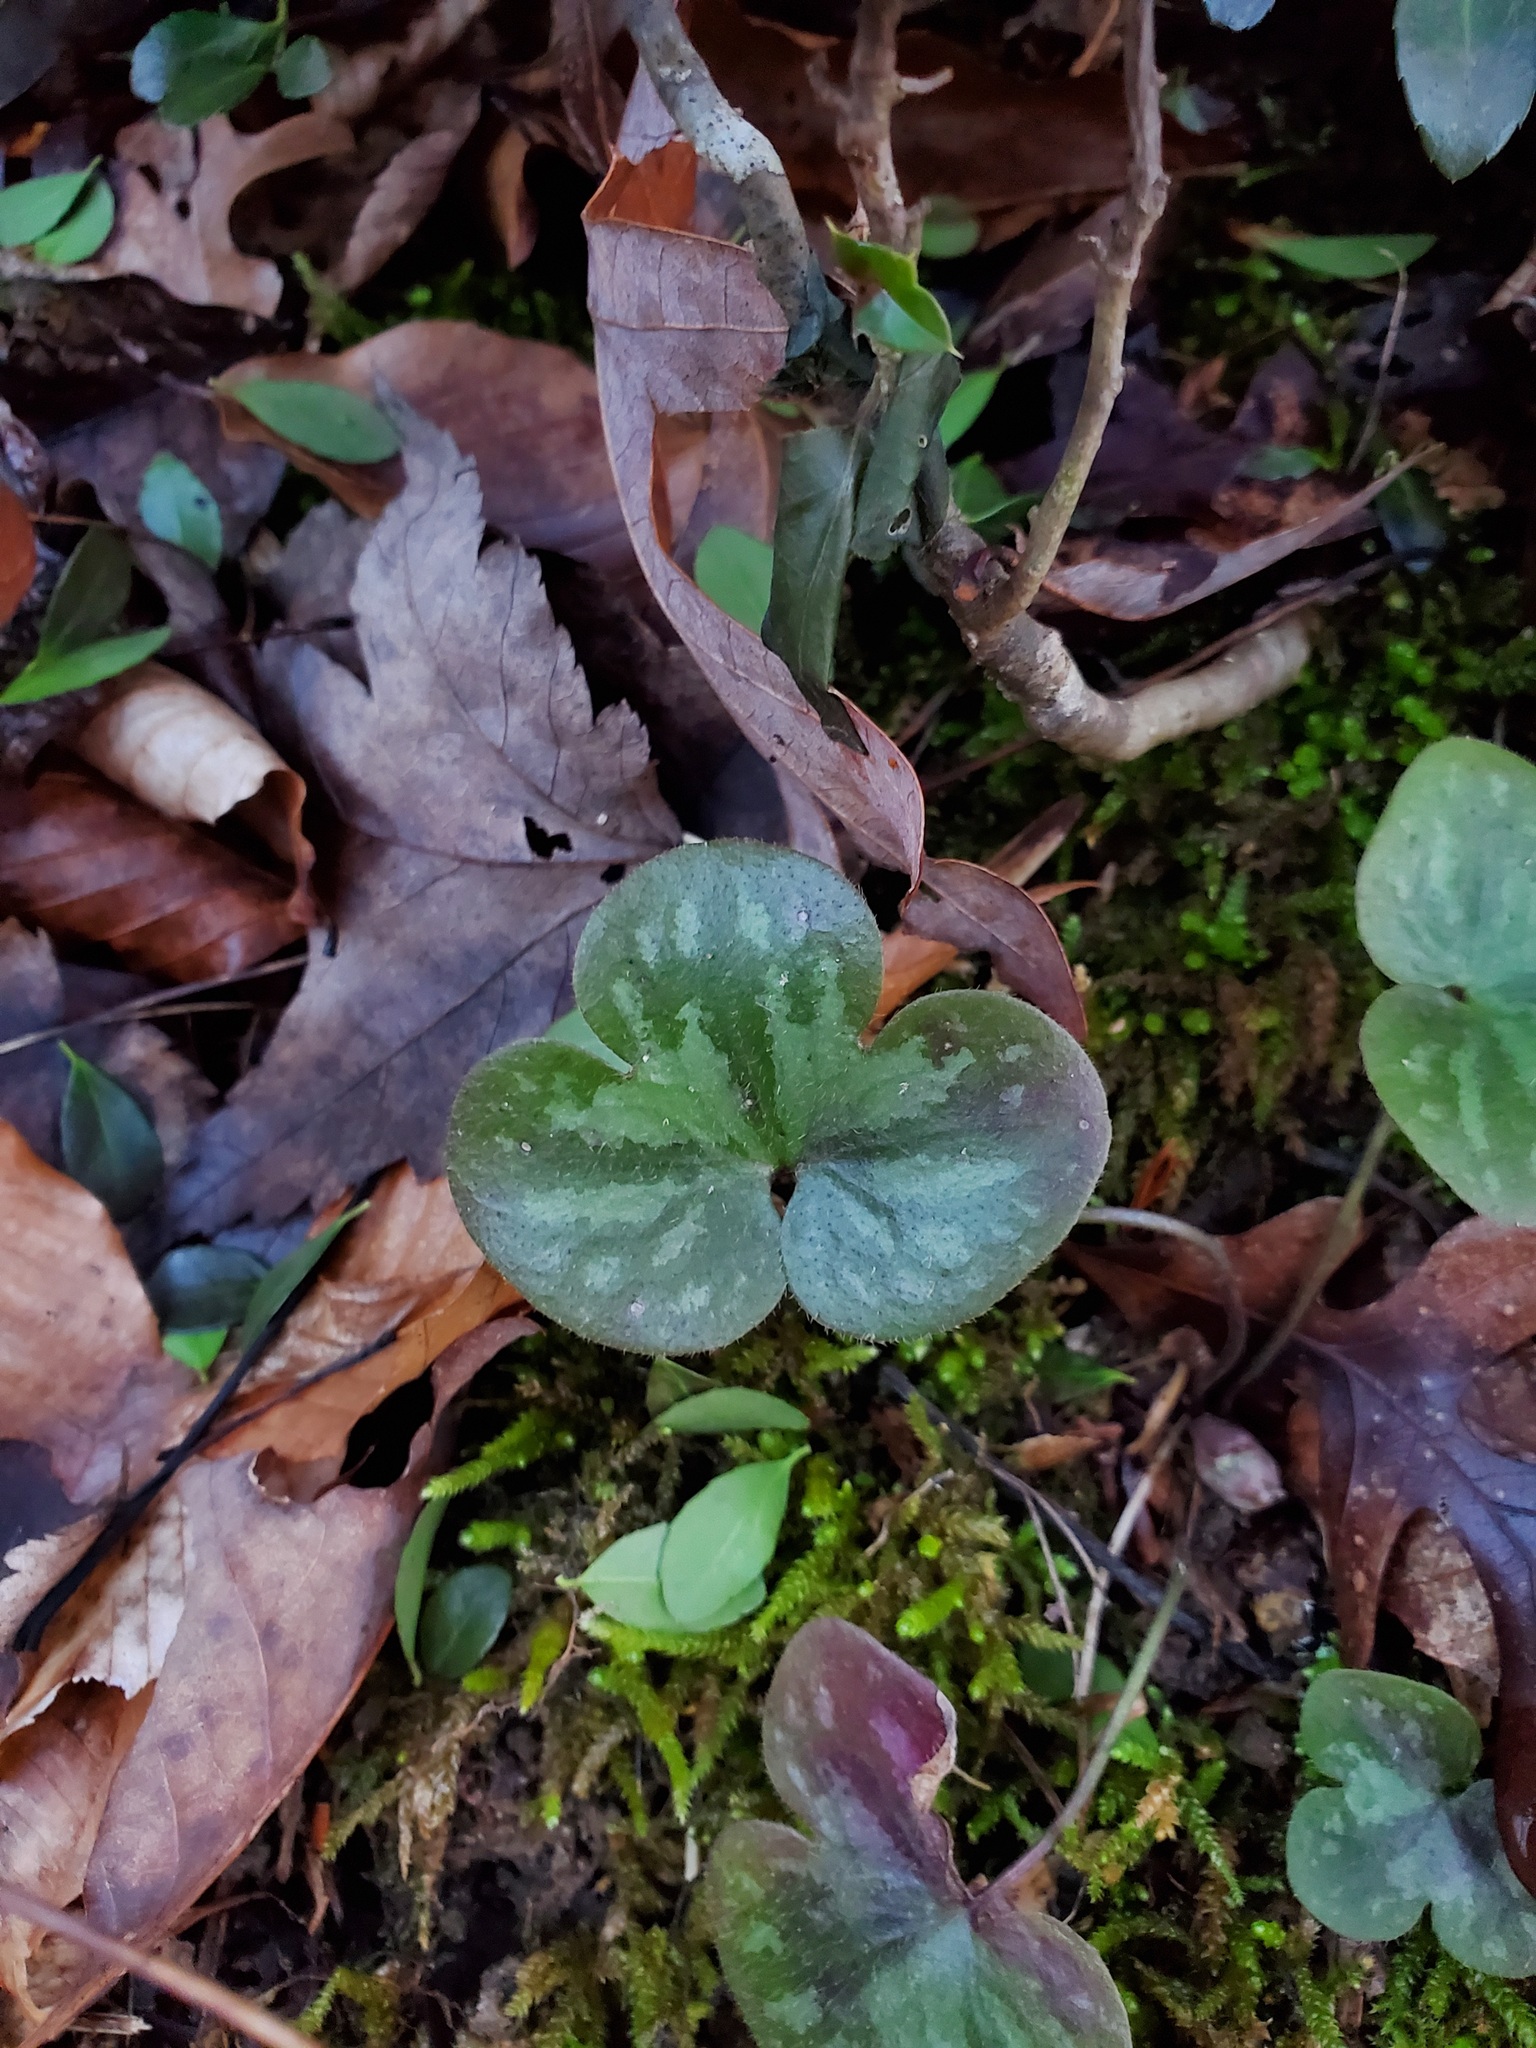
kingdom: Plantae
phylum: Tracheophyta
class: Magnoliopsida
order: Ranunculales
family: Ranunculaceae
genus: Hepatica
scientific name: Hepatica americana
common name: American hepatica
